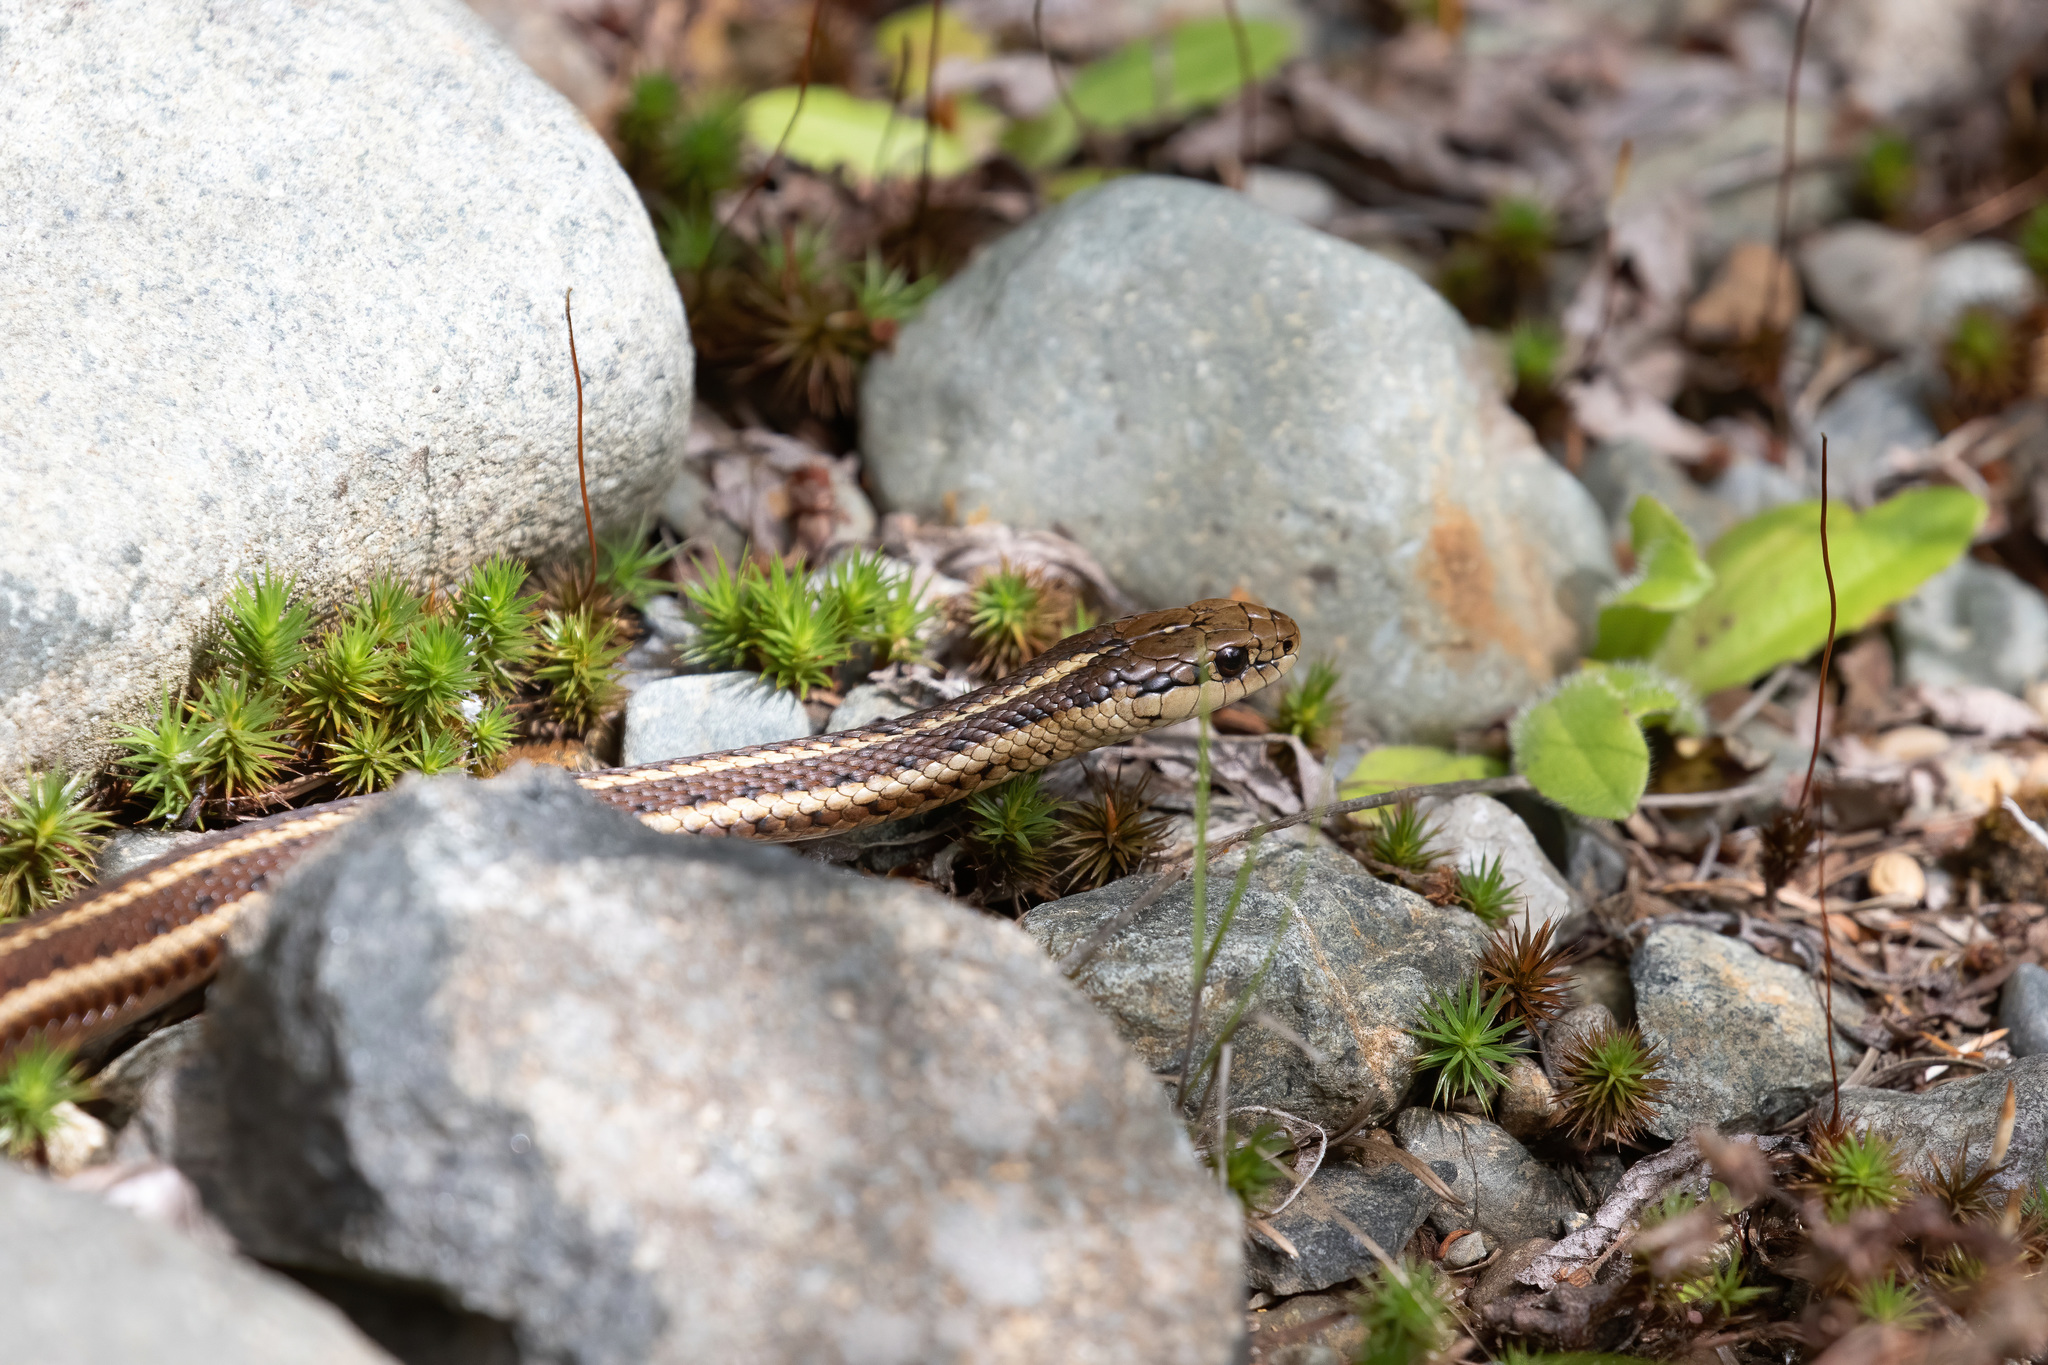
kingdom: Animalia
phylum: Chordata
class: Squamata
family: Colubridae
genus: Thamnophis
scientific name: Thamnophis ordinoides
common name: Northwestern garter snake
